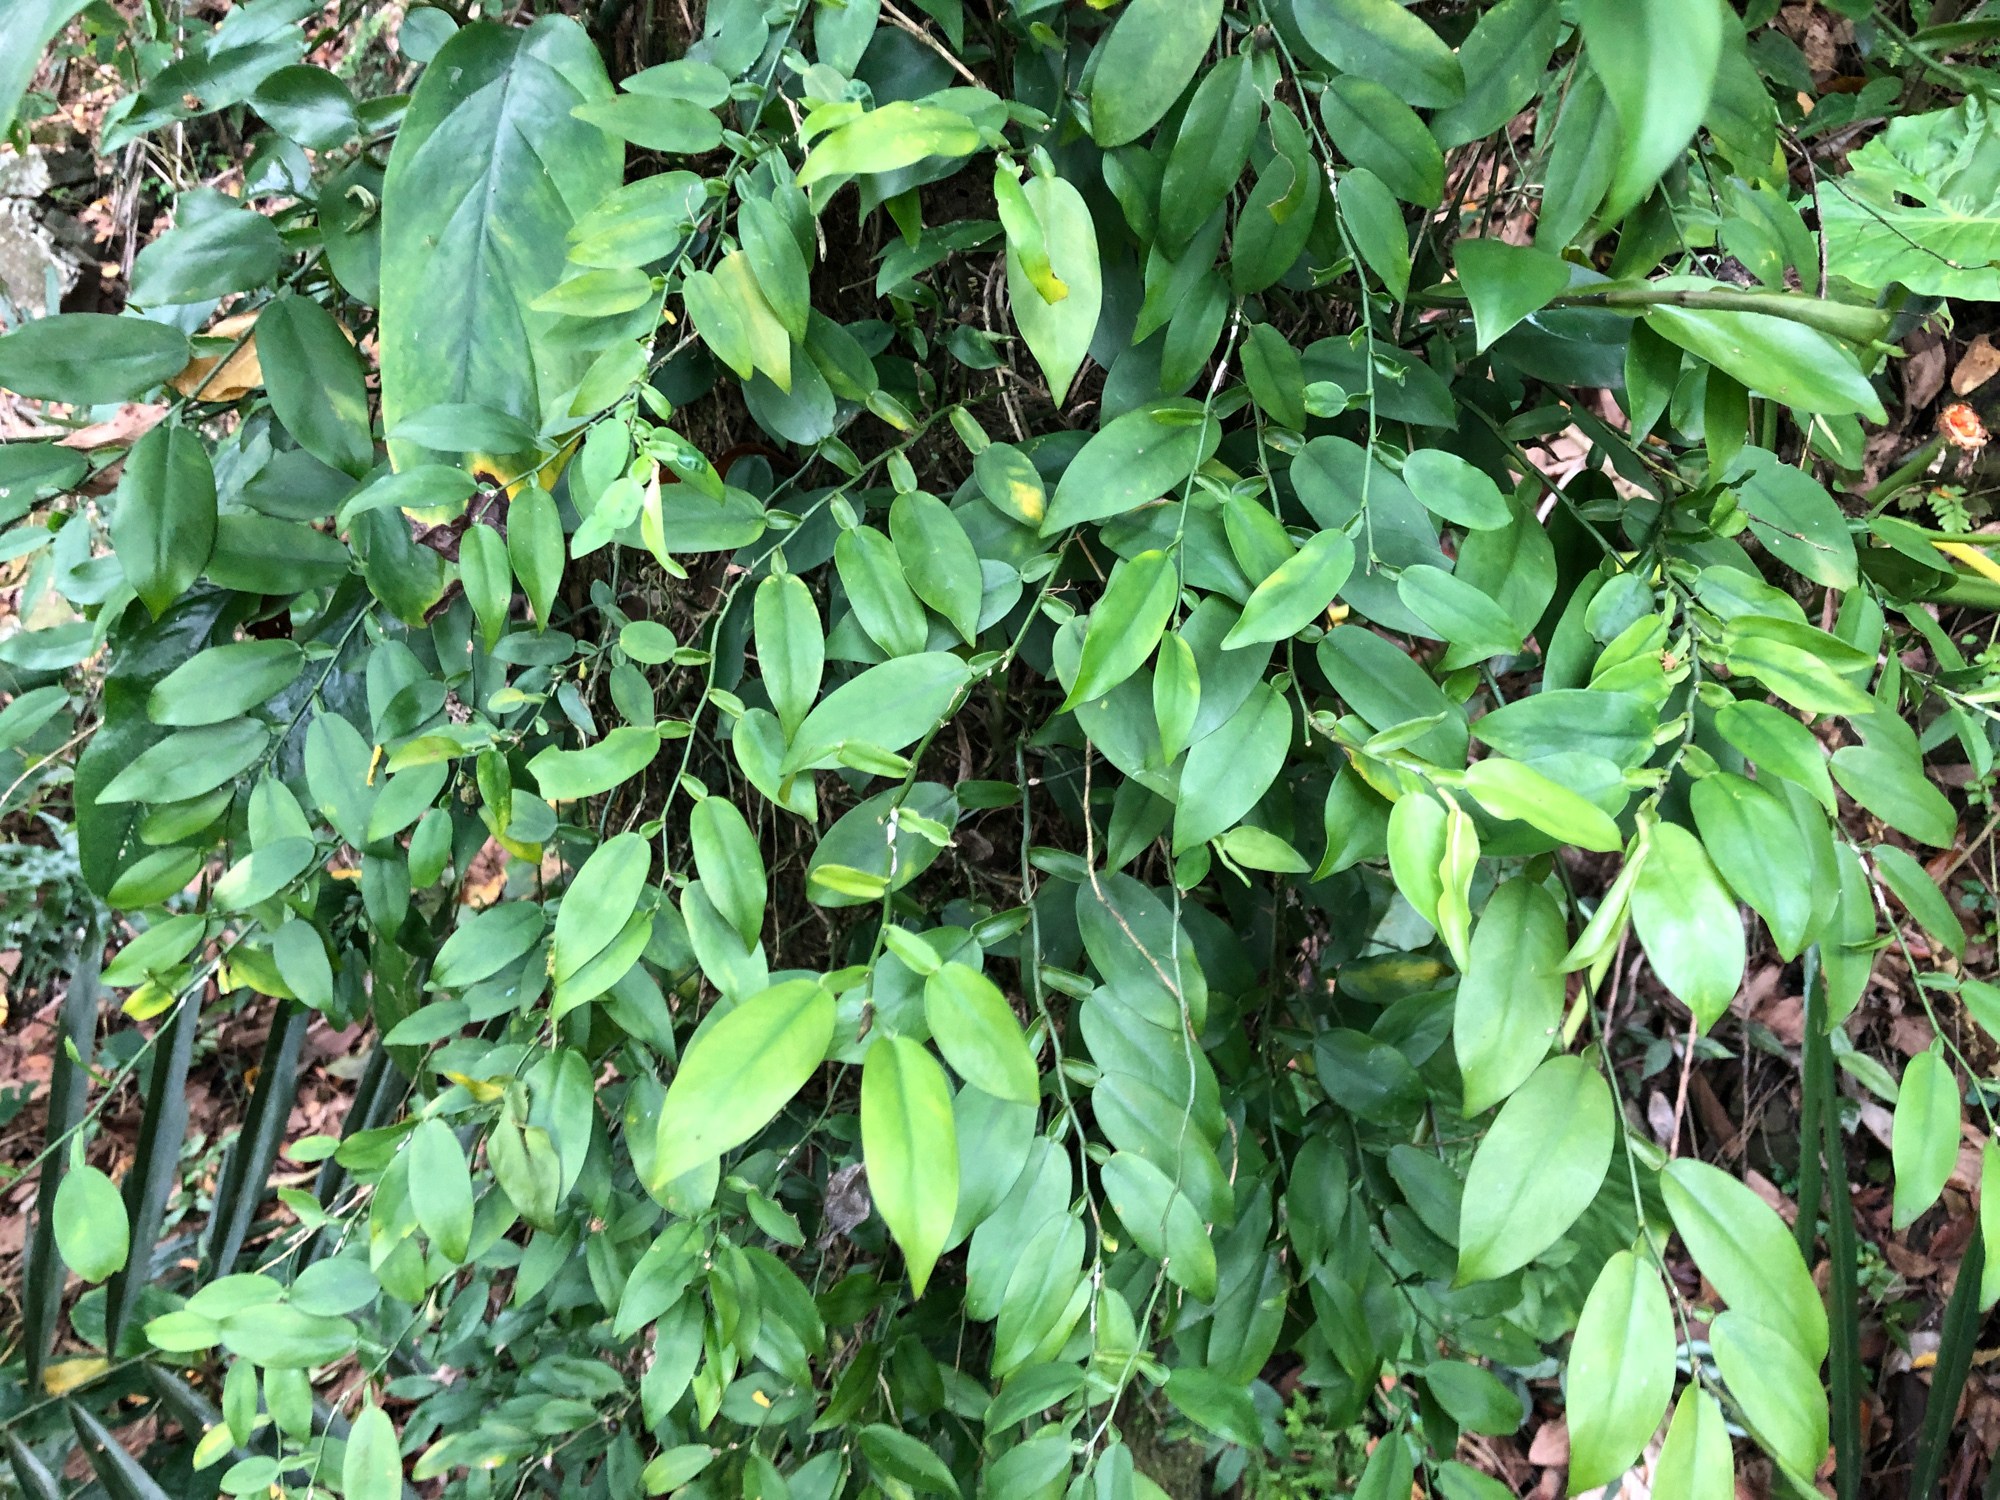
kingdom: Plantae
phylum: Tracheophyta
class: Liliopsida
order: Alismatales
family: Araceae
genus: Pothos
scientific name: Pothos chinensis
